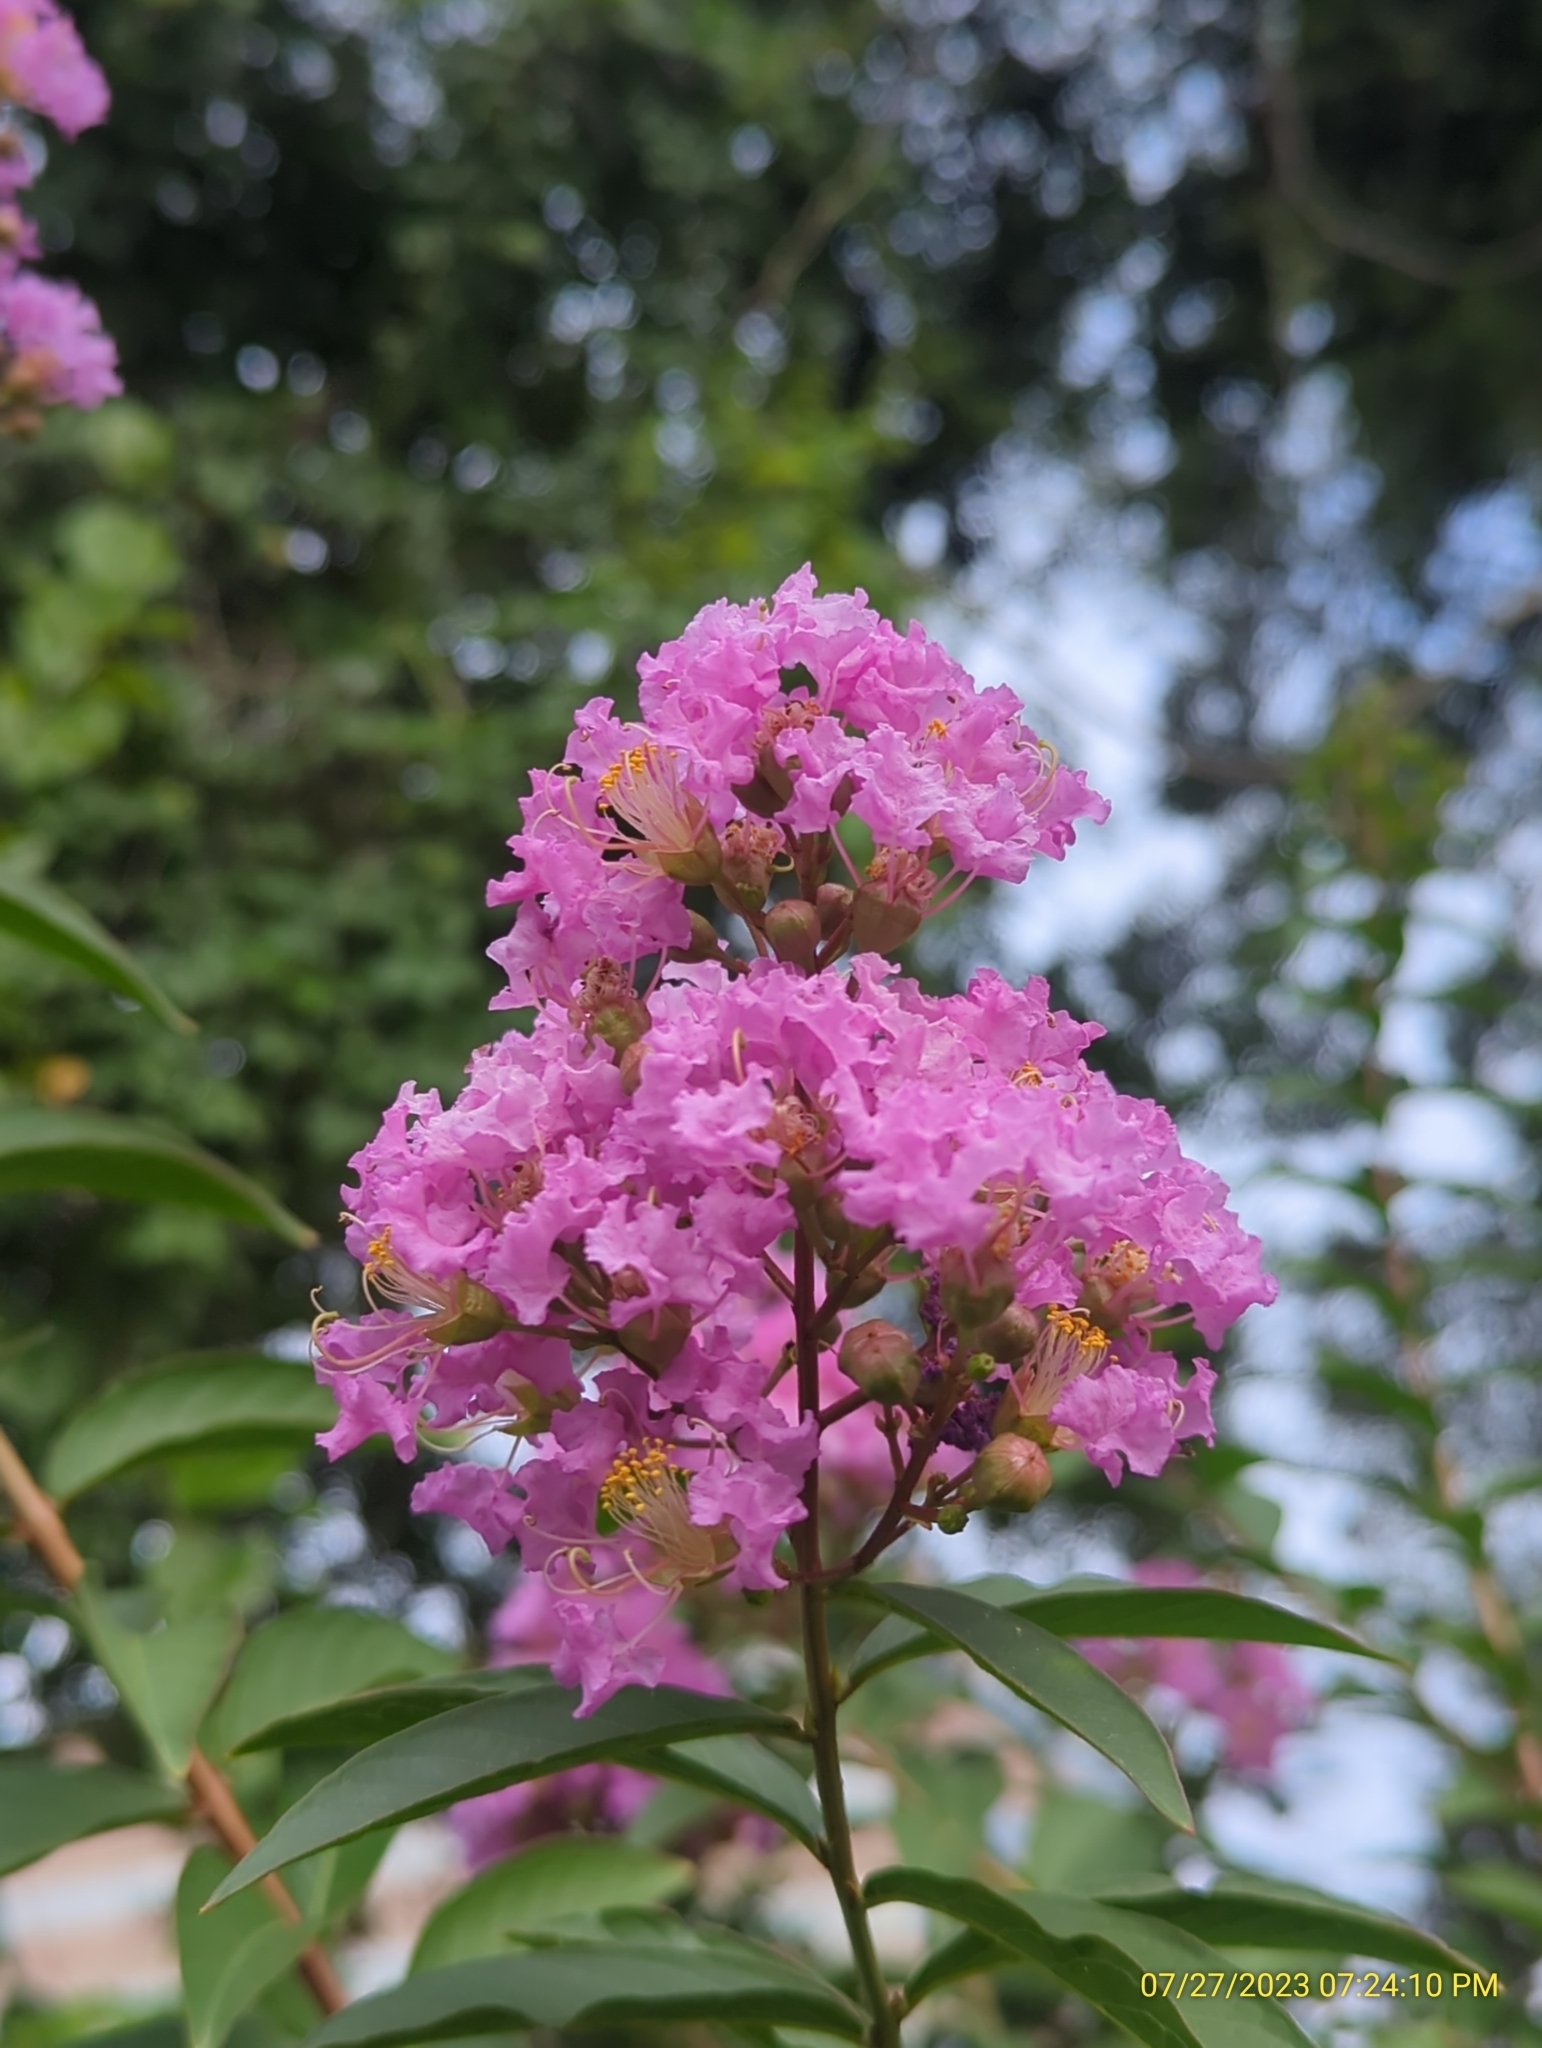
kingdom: Plantae
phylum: Tracheophyta
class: Magnoliopsida
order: Myrtales
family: Lythraceae
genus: Lagerstroemia
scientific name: Lagerstroemia indica
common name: Crape-myrtle
